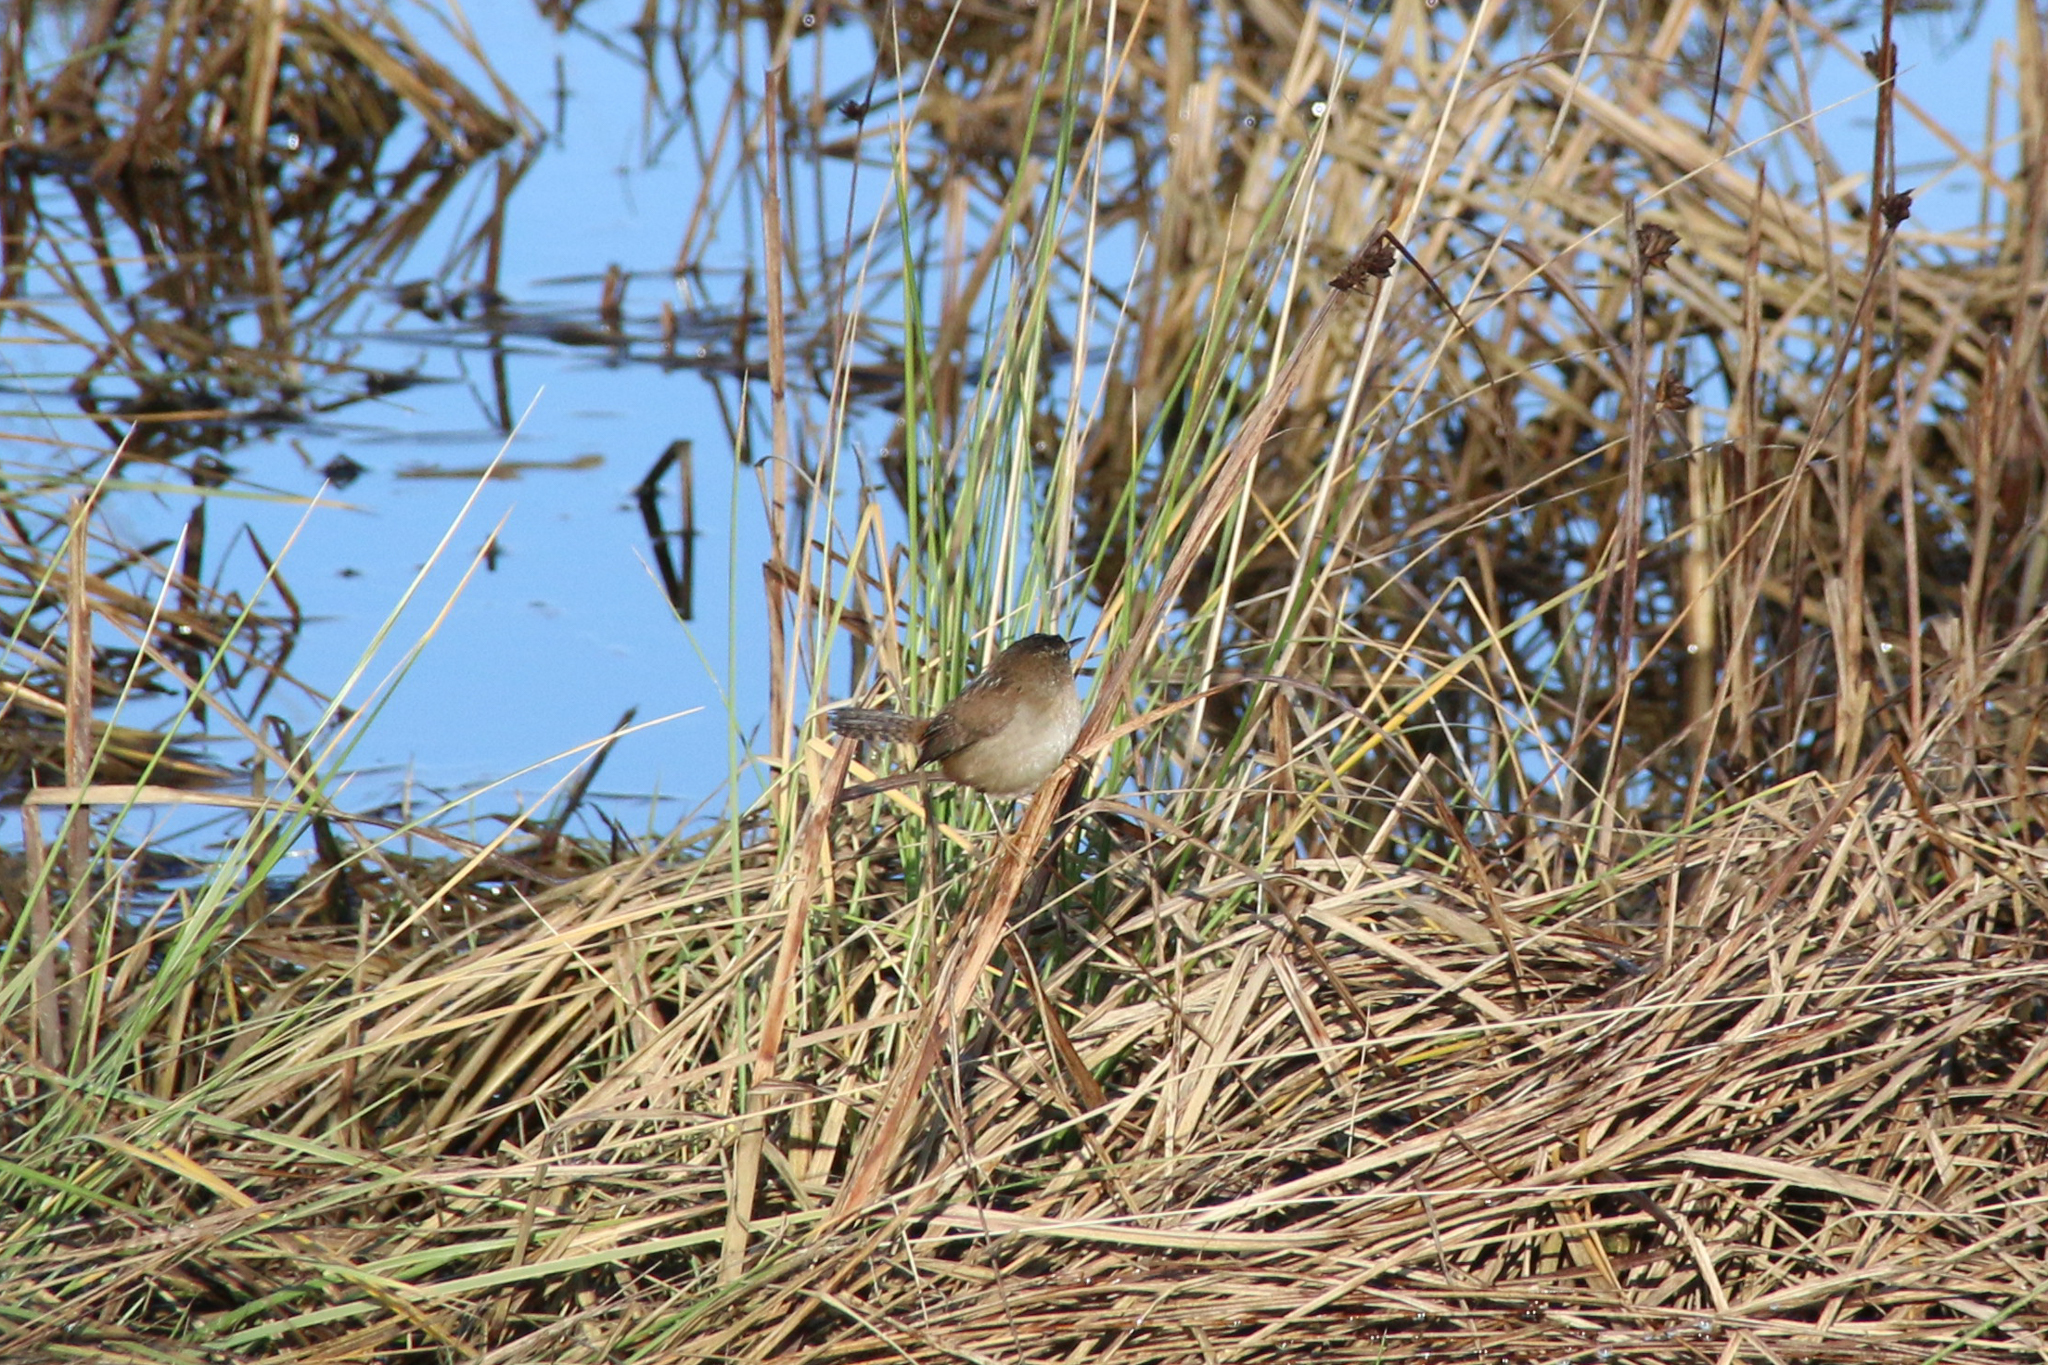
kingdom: Animalia
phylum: Chordata
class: Aves
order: Passeriformes
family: Troglodytidae
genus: Cistothorus
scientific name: Cistothorus palustris
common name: Marsh wren
